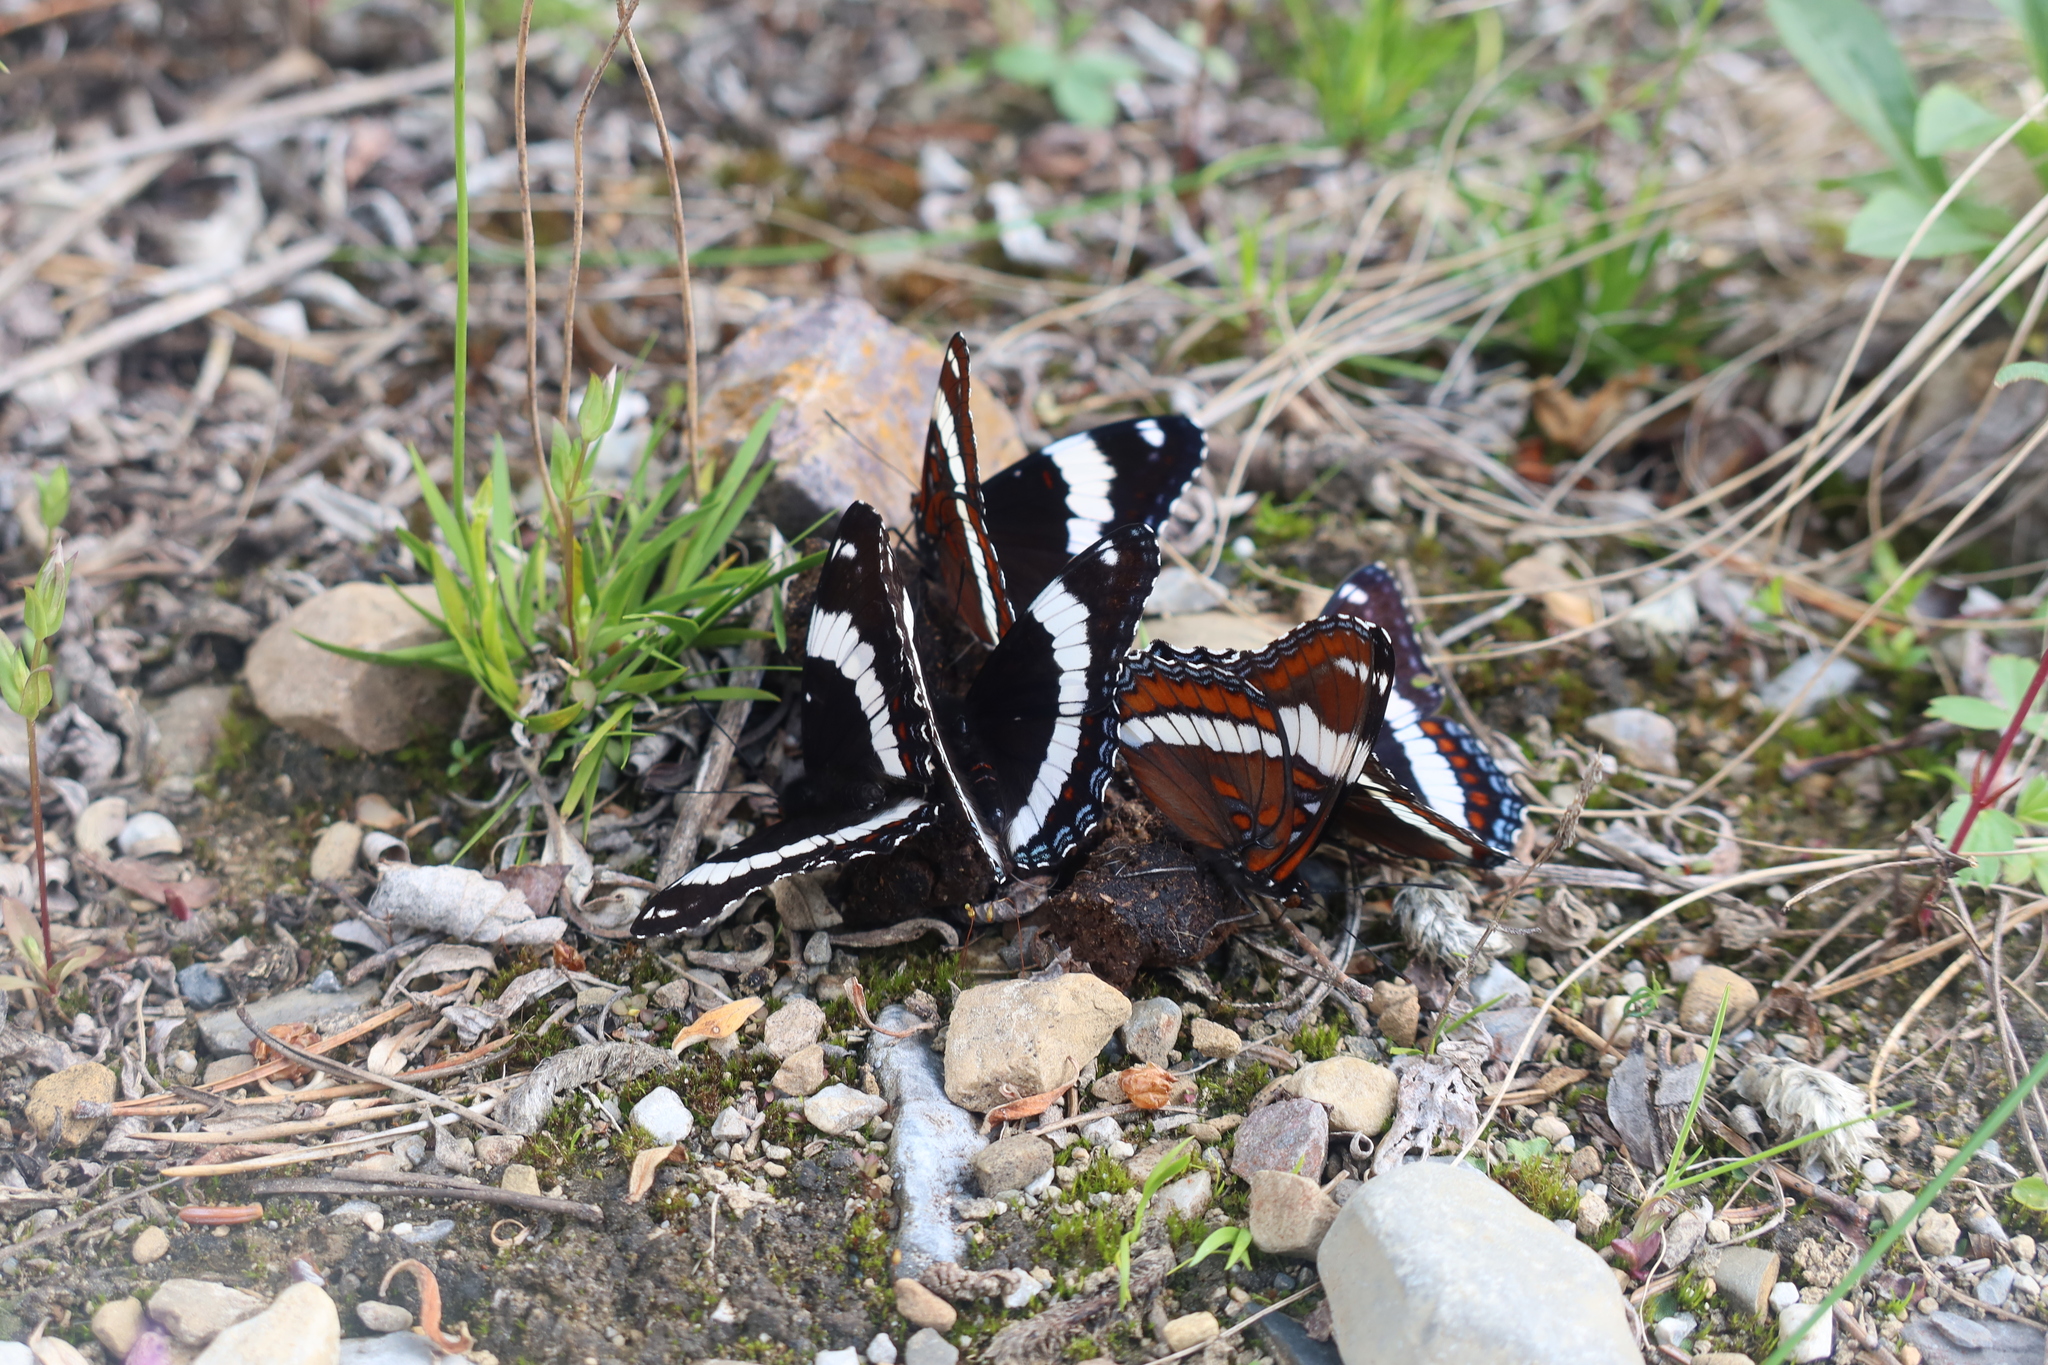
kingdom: Animalia
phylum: Arthropoda
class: Insecta
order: Lepidoptera
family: Nymphalidae
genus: Limenitis
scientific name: Limenitis arthemis
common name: Red-spotted admiral
